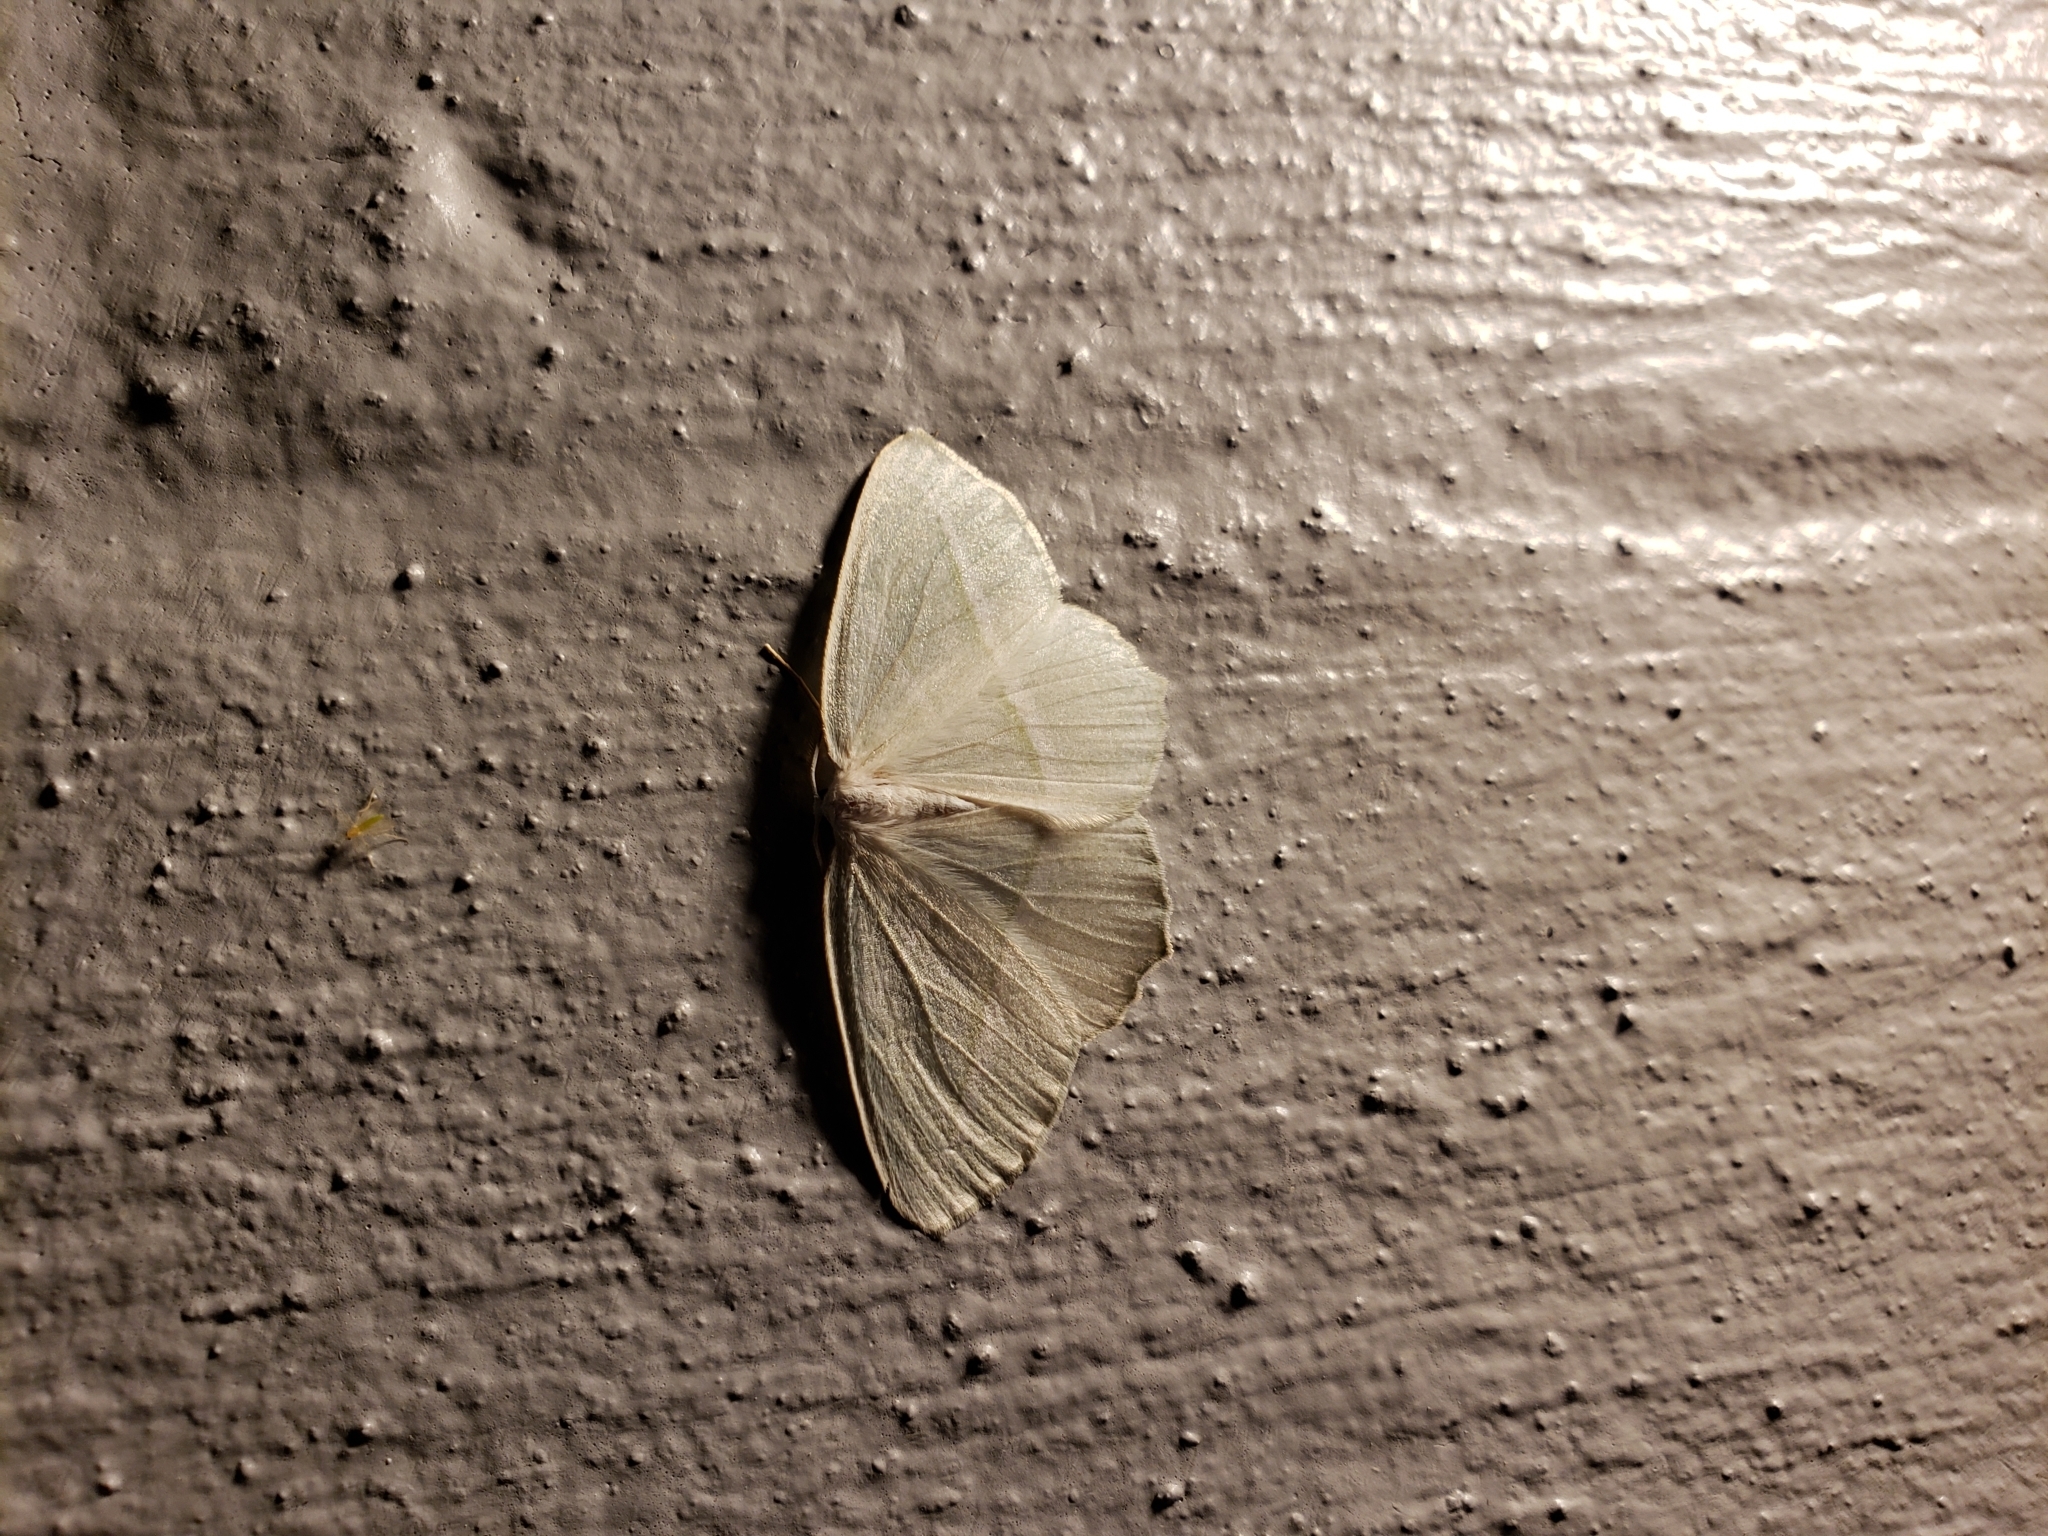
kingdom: Animalia
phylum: Arthropoda
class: Insecta
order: Lepidoptera
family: Geometridae
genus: Campaea
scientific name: Campaea perlata
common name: Fringed looper
